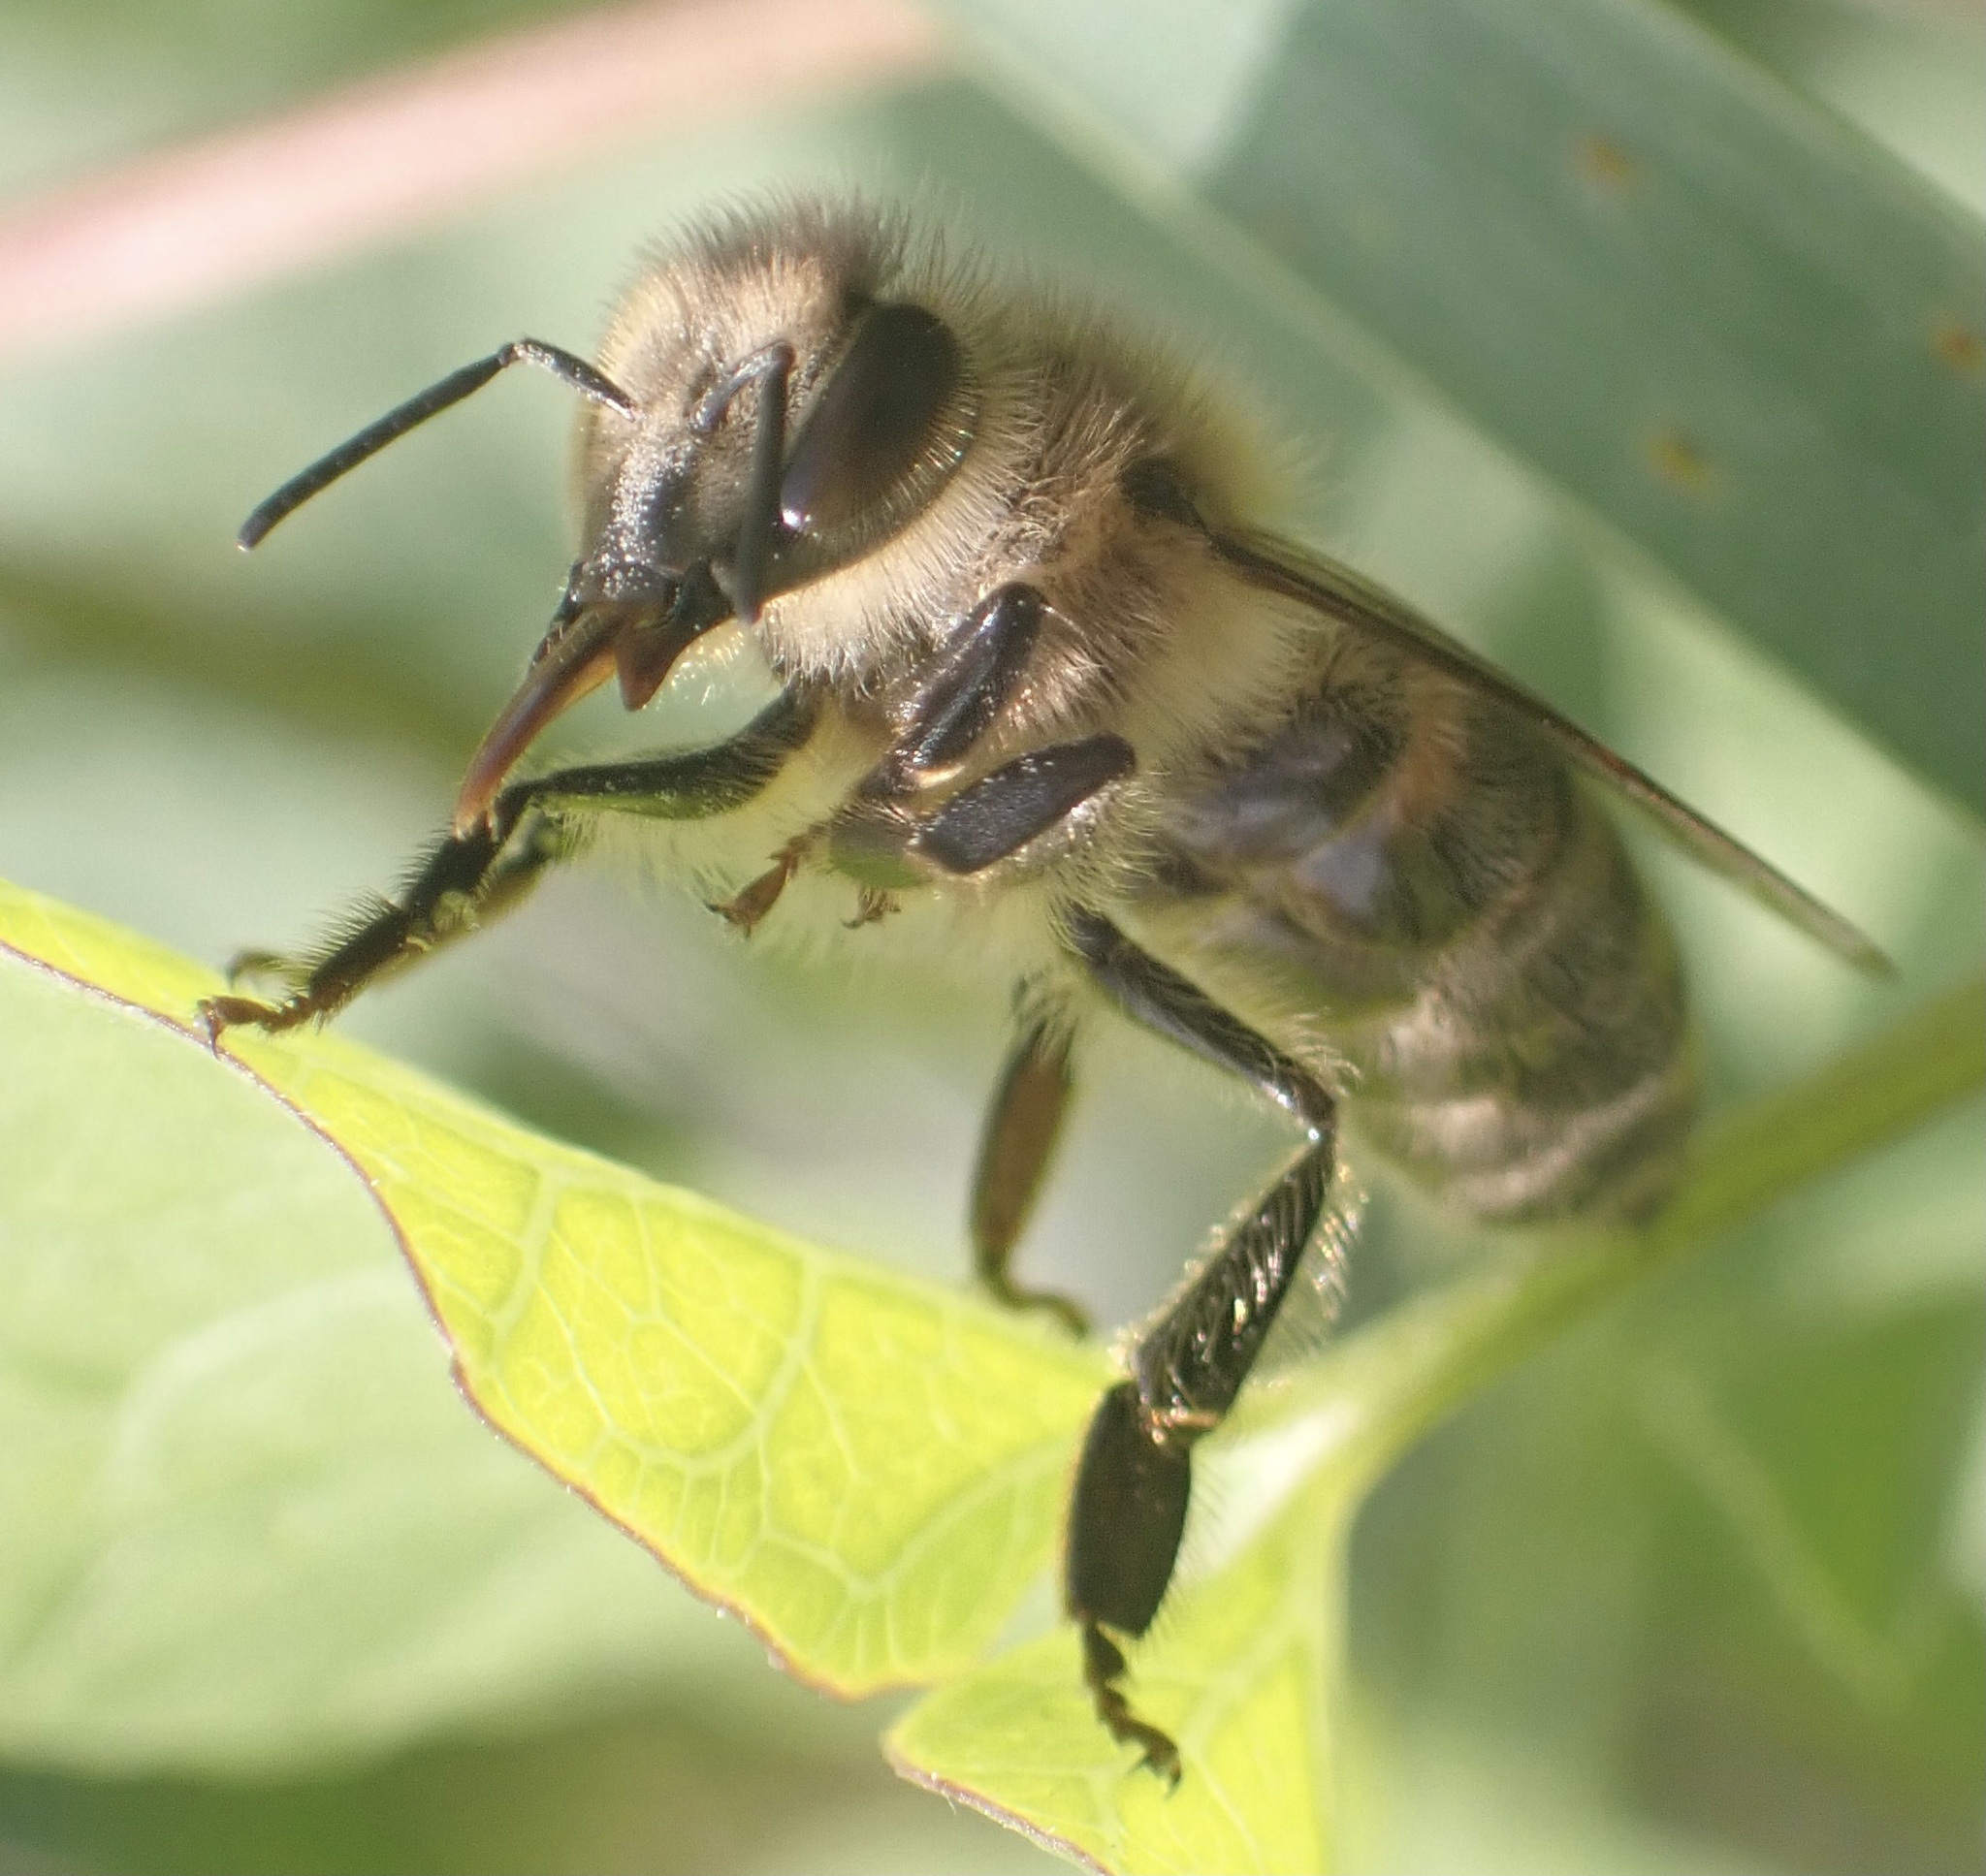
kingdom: Animalia
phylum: Arthropoda
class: Insecta
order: Hymenoptera
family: Apidae
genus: Apis
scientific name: Apis mellifera
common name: Honey bee
